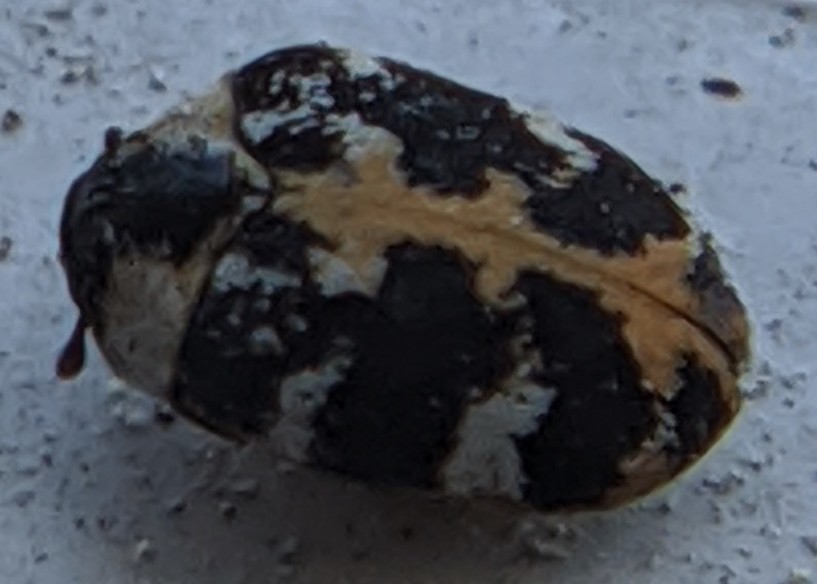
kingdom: Animalia
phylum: Arthropoda
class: Insecta
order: Coleoptera
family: Dermestidae
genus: Anthrenus
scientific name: Anthrenus scrophulariae
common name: Buffalo carpet beetle
